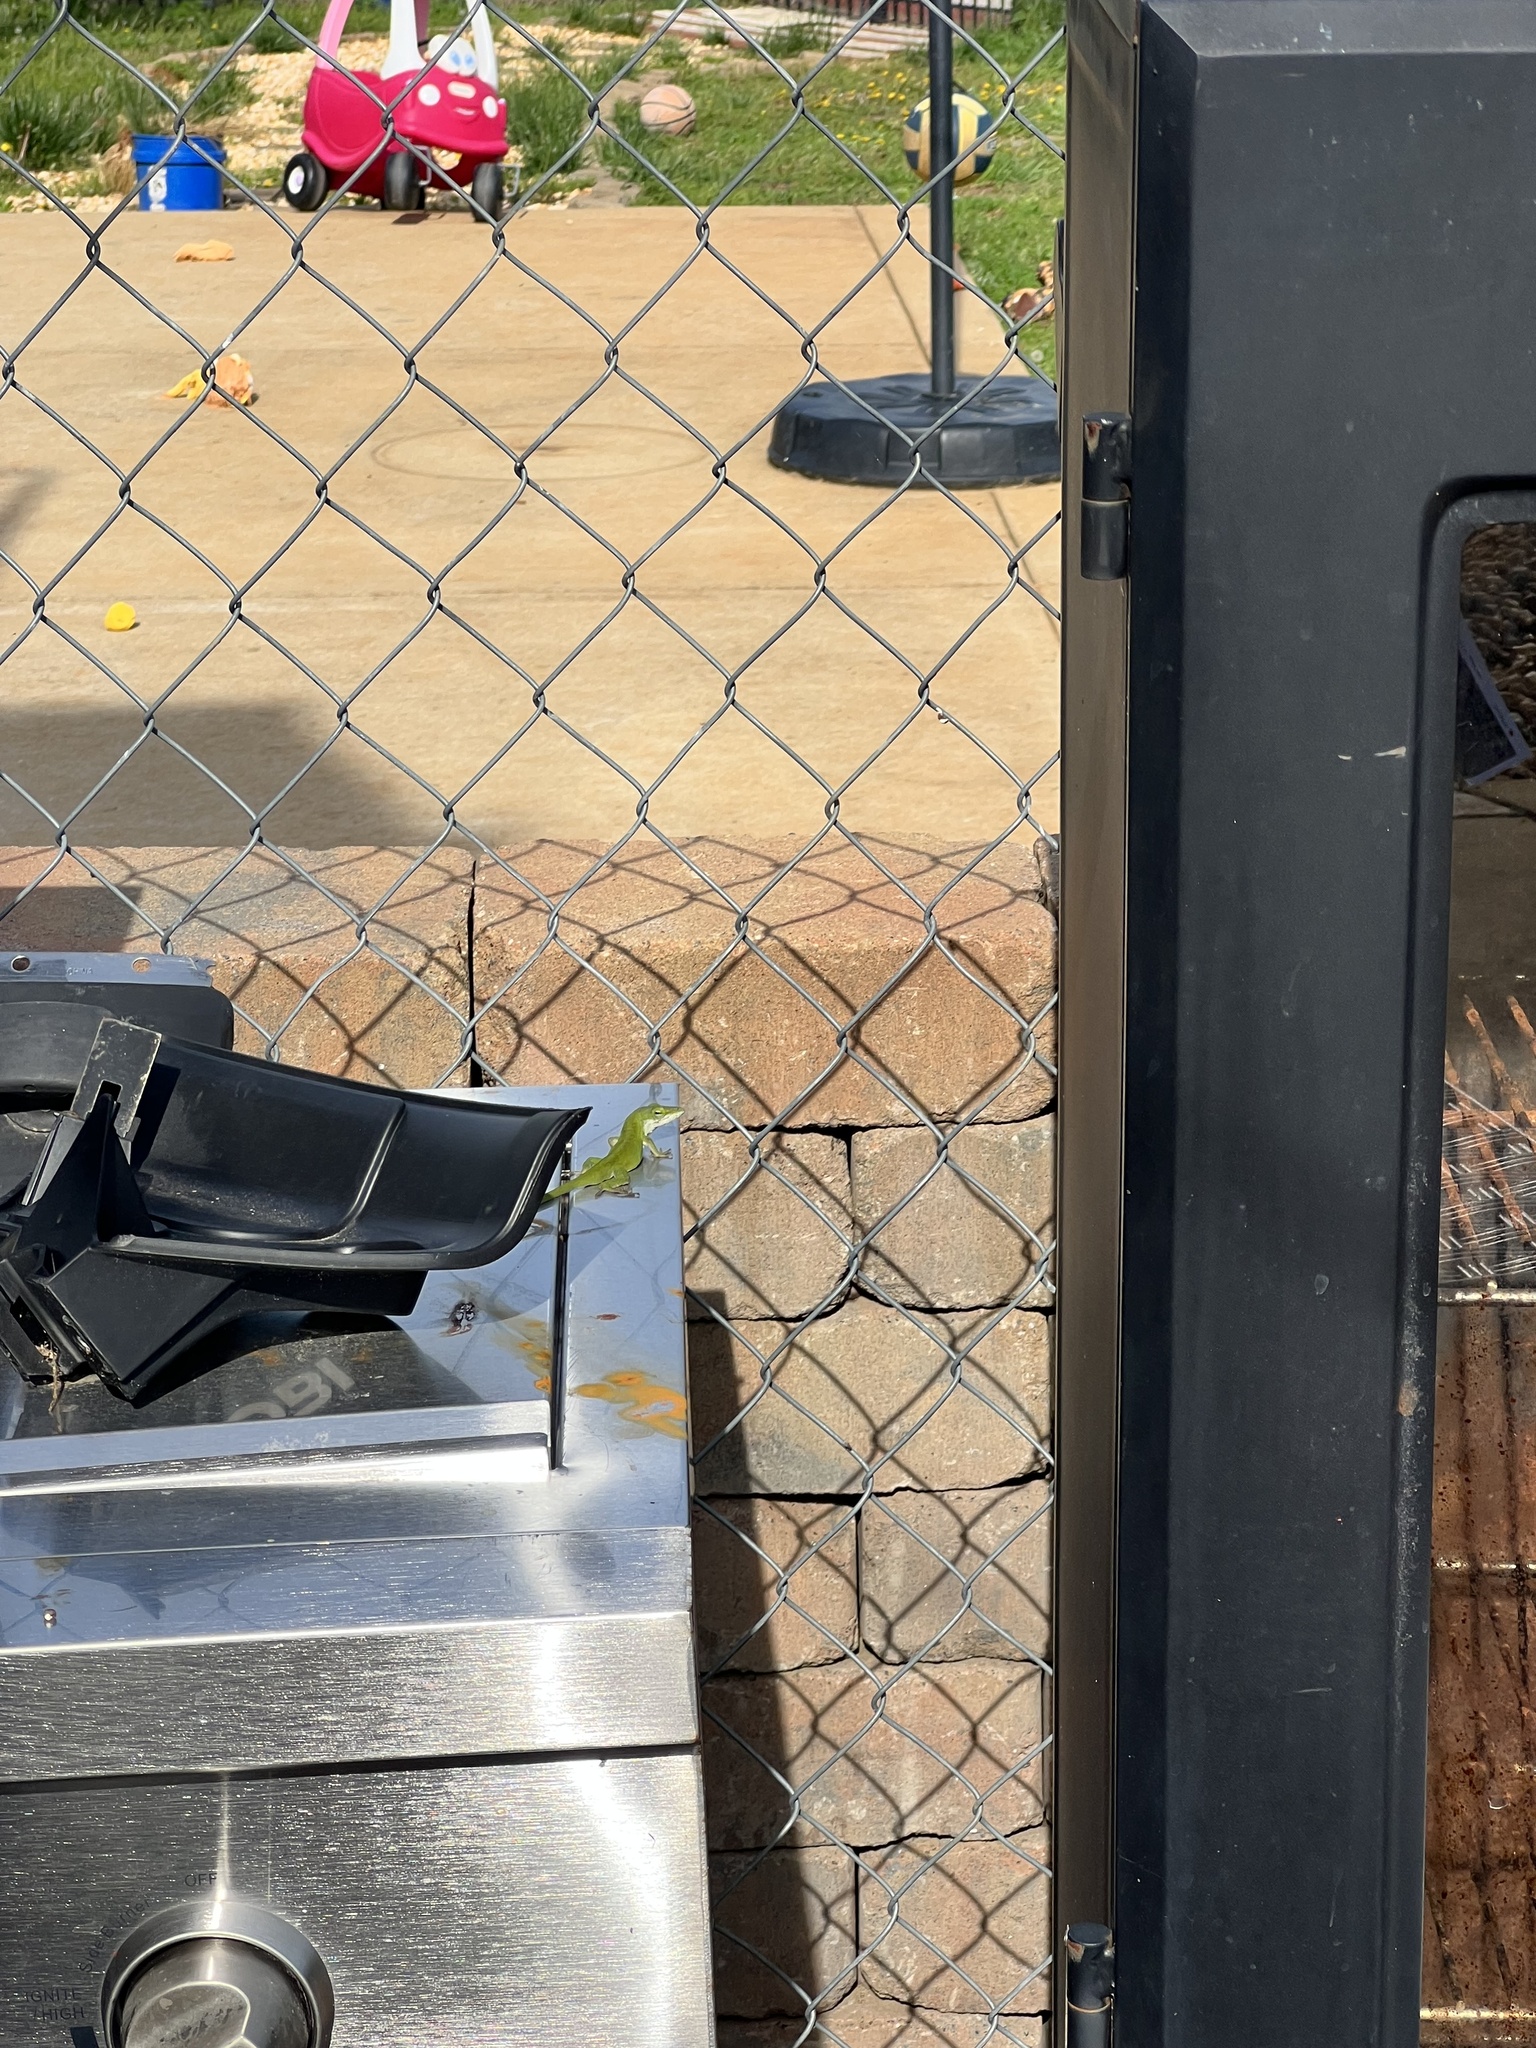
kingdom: Animalia
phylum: Chordata
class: Squamata
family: Dactyloidae
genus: Anolis
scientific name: Anolis carolinensis
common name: Green anole
